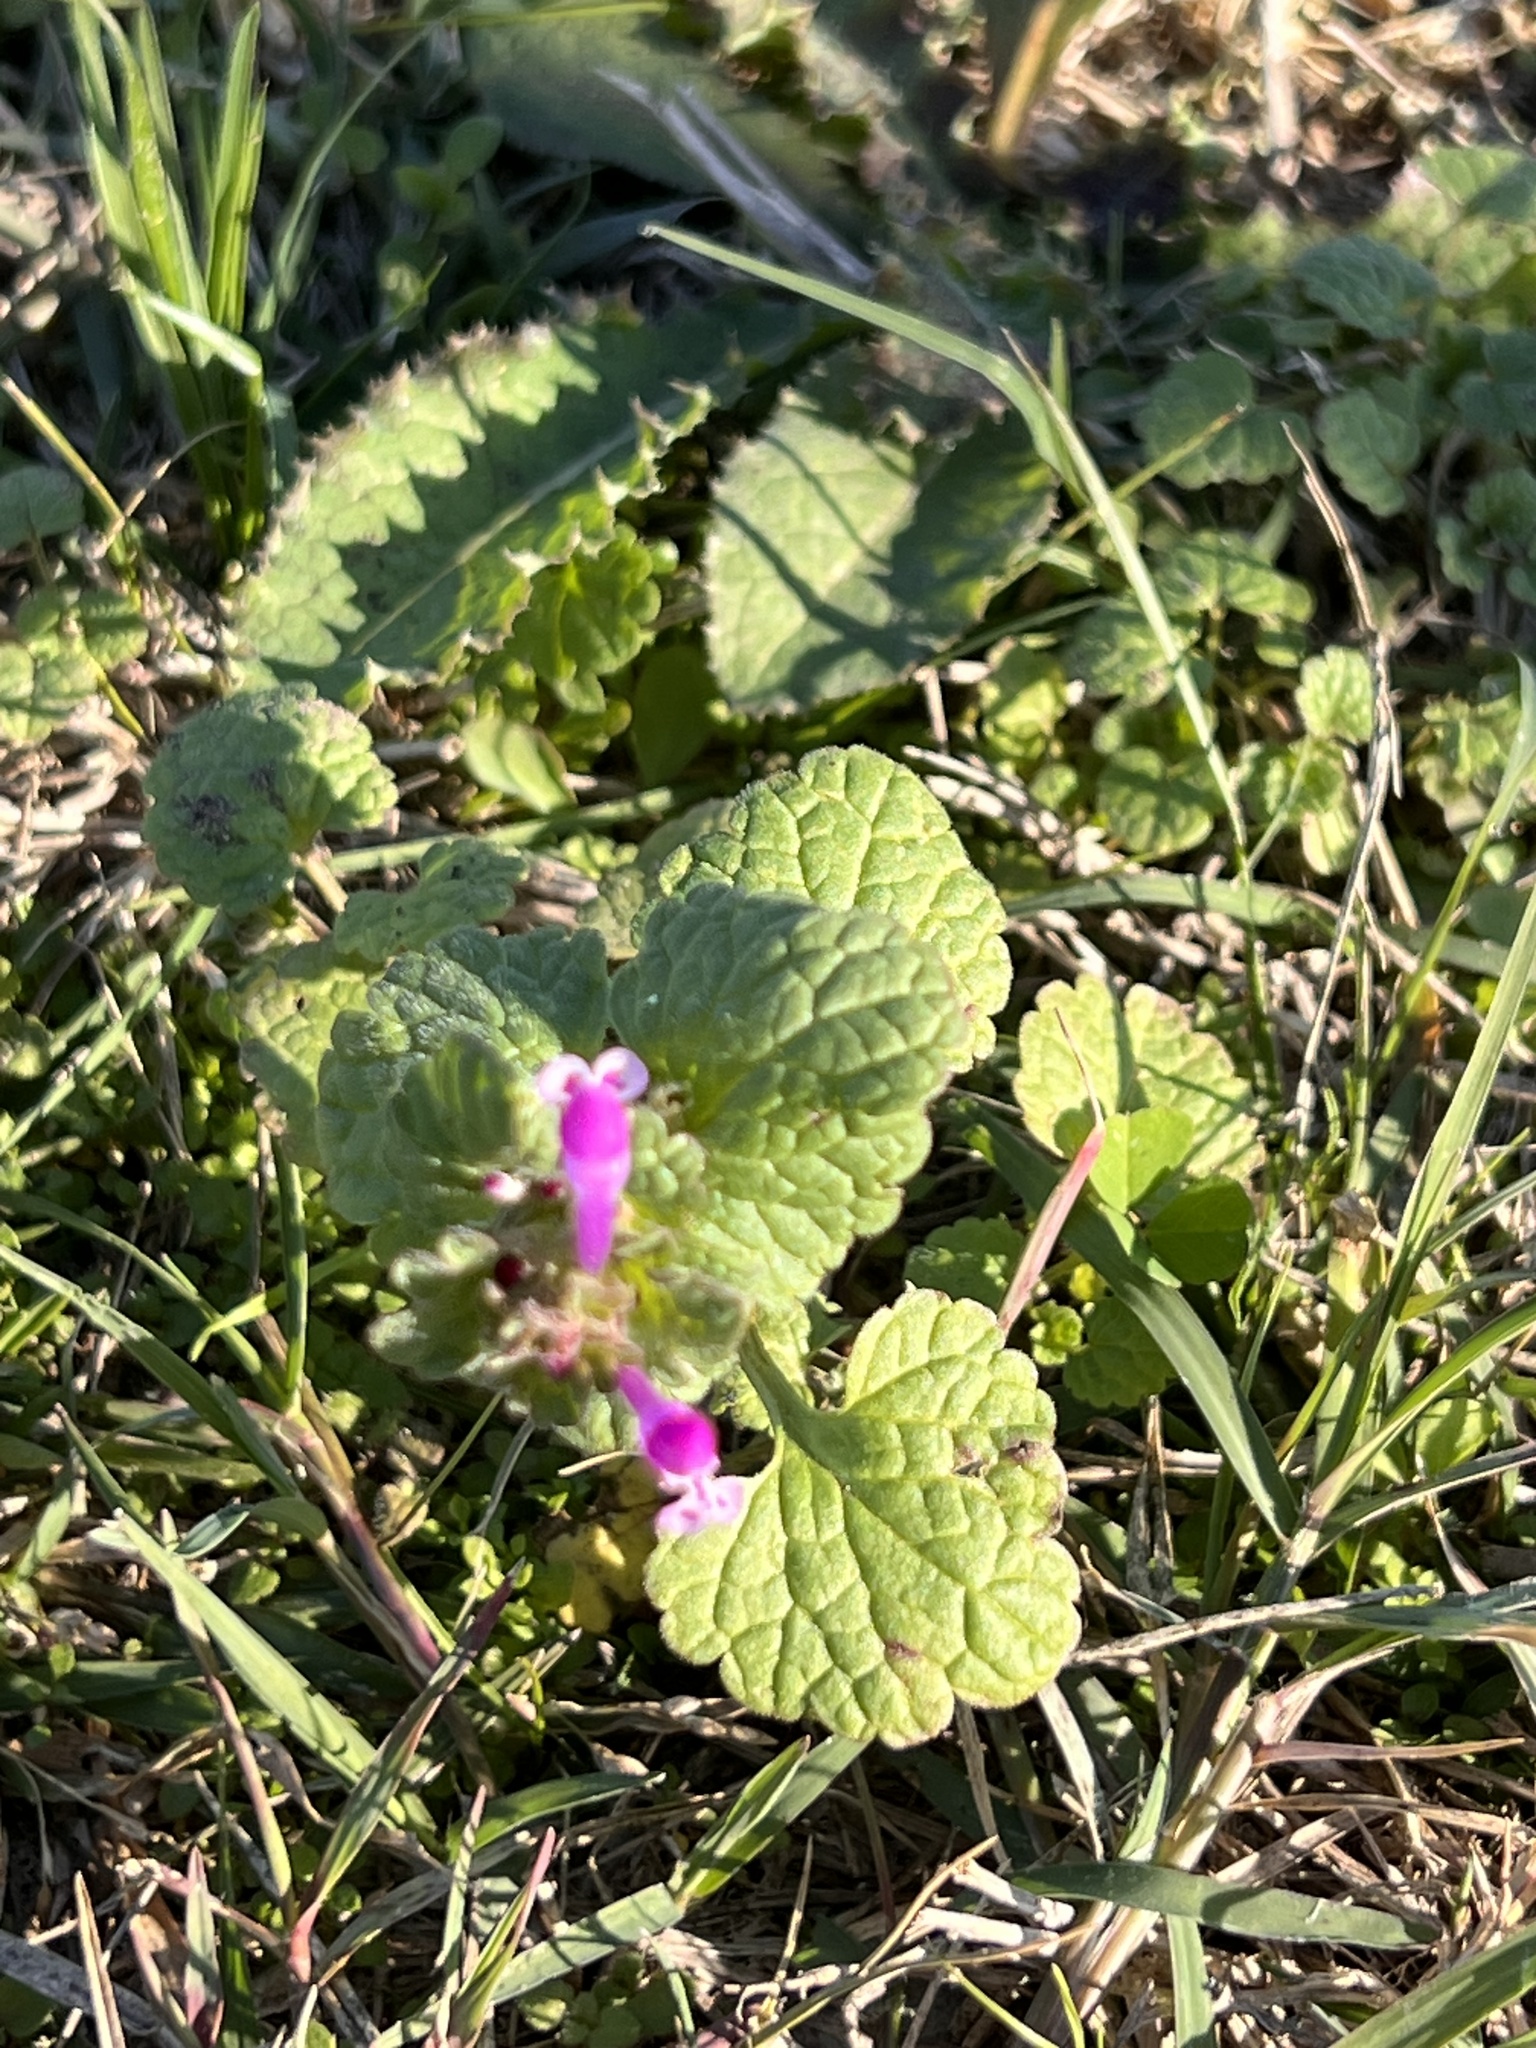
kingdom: Plantae
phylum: Tracheophyta
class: Magnoliopsida
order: Lamiales
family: Lamiaceae
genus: Lamium
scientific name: Lamium amplexicaule
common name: Henbit dead-nettle
